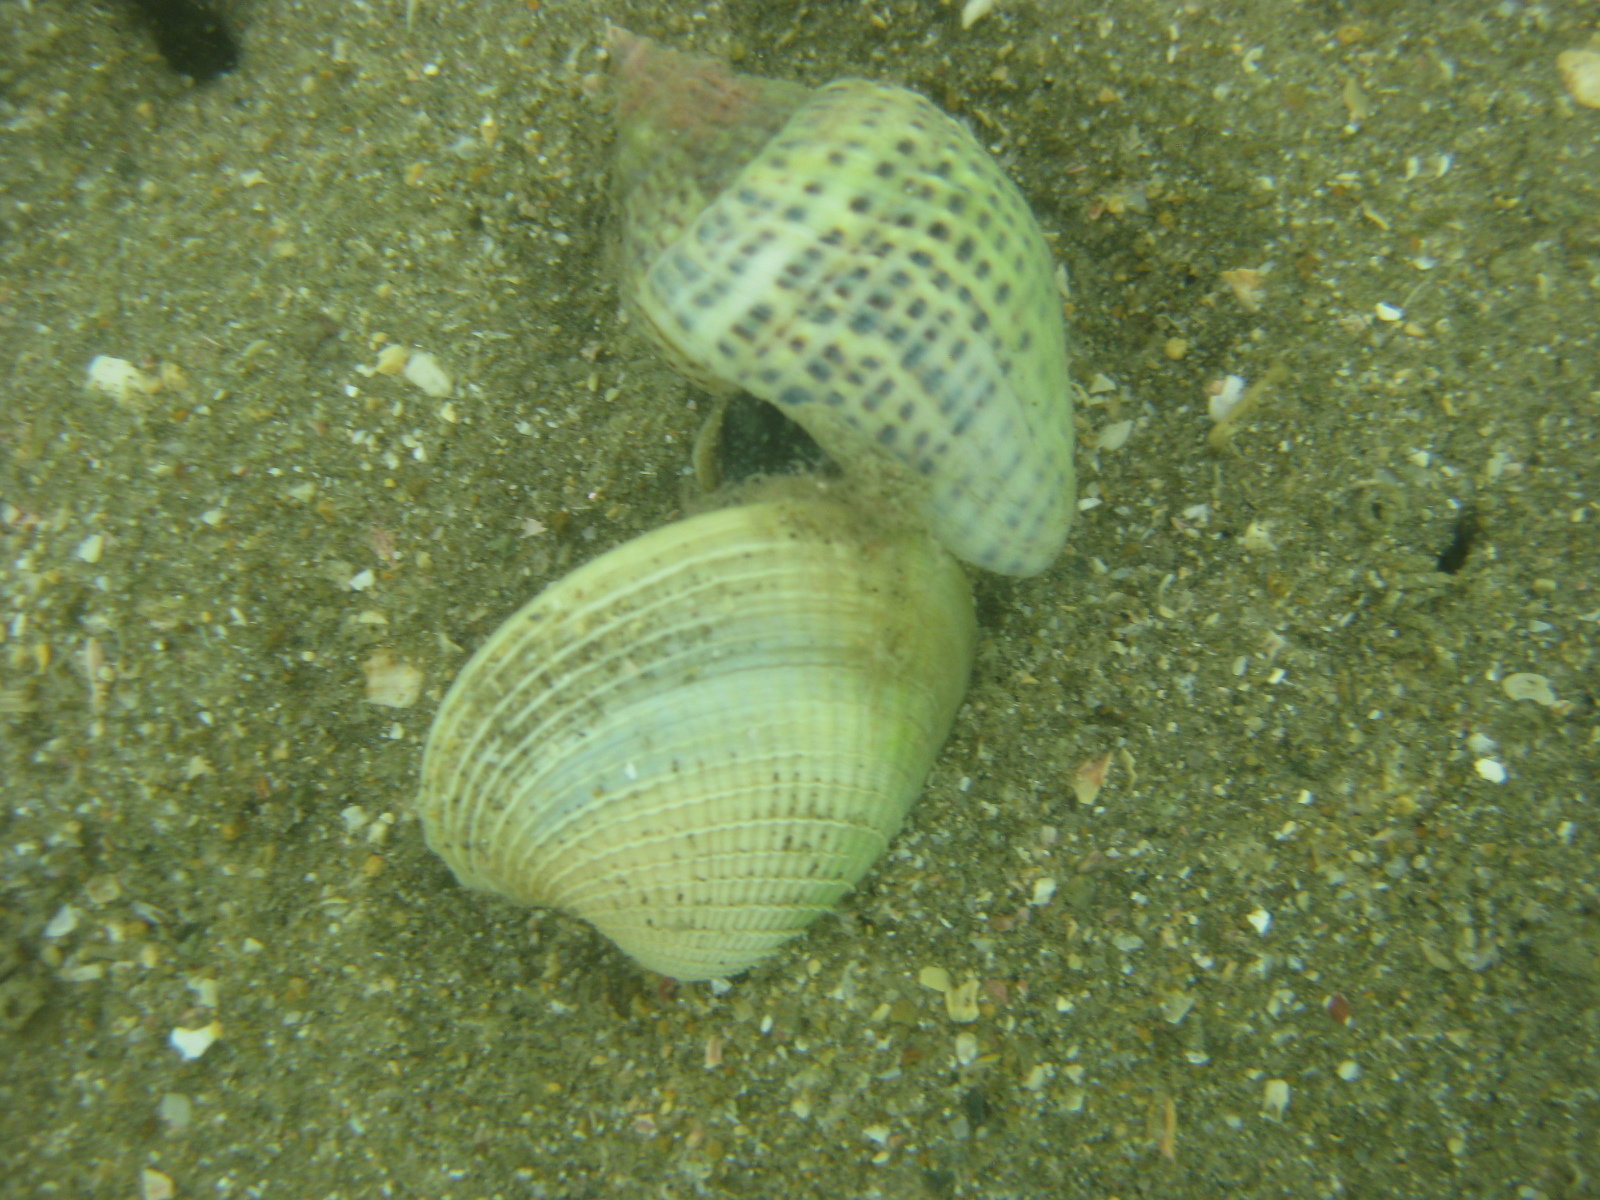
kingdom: Animalia
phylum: Mollusca
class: Bivalvia
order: Venerida
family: Veneridae
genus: Austrovenus
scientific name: Austrovenus stutchburyi
